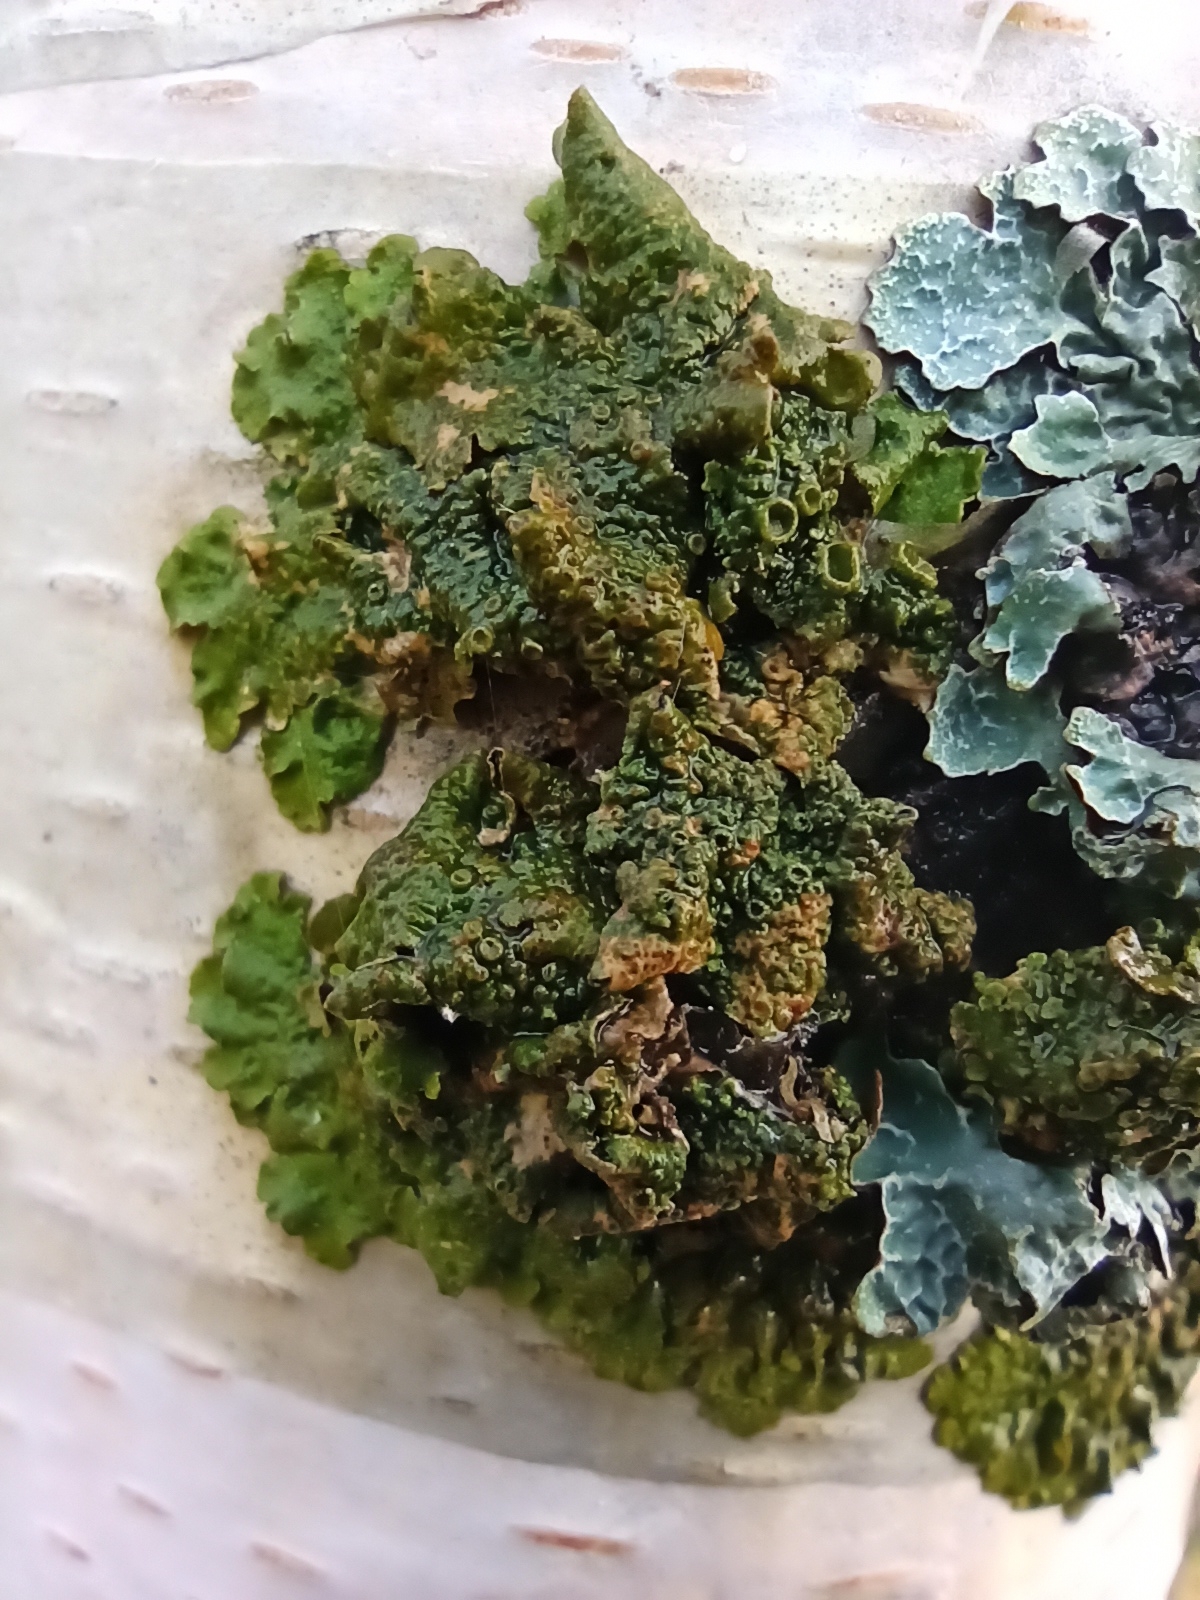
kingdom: Fungi
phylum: Ascomycota
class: Lecanoromycetes
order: Lecanorales
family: Parmeliaceae
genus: Melanohalea
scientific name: Melanohalea olivacea
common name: Spotted camouflage lichen
